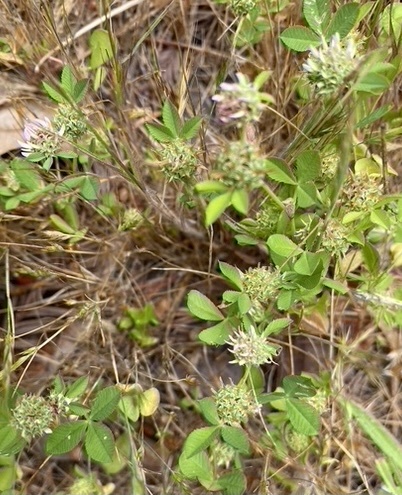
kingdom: Plantae
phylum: Tracheophyta
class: Magnoliopsida
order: Fabales
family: Fabaceae
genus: Trifolium
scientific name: Trifolium glomeratum
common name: Clustered clover
